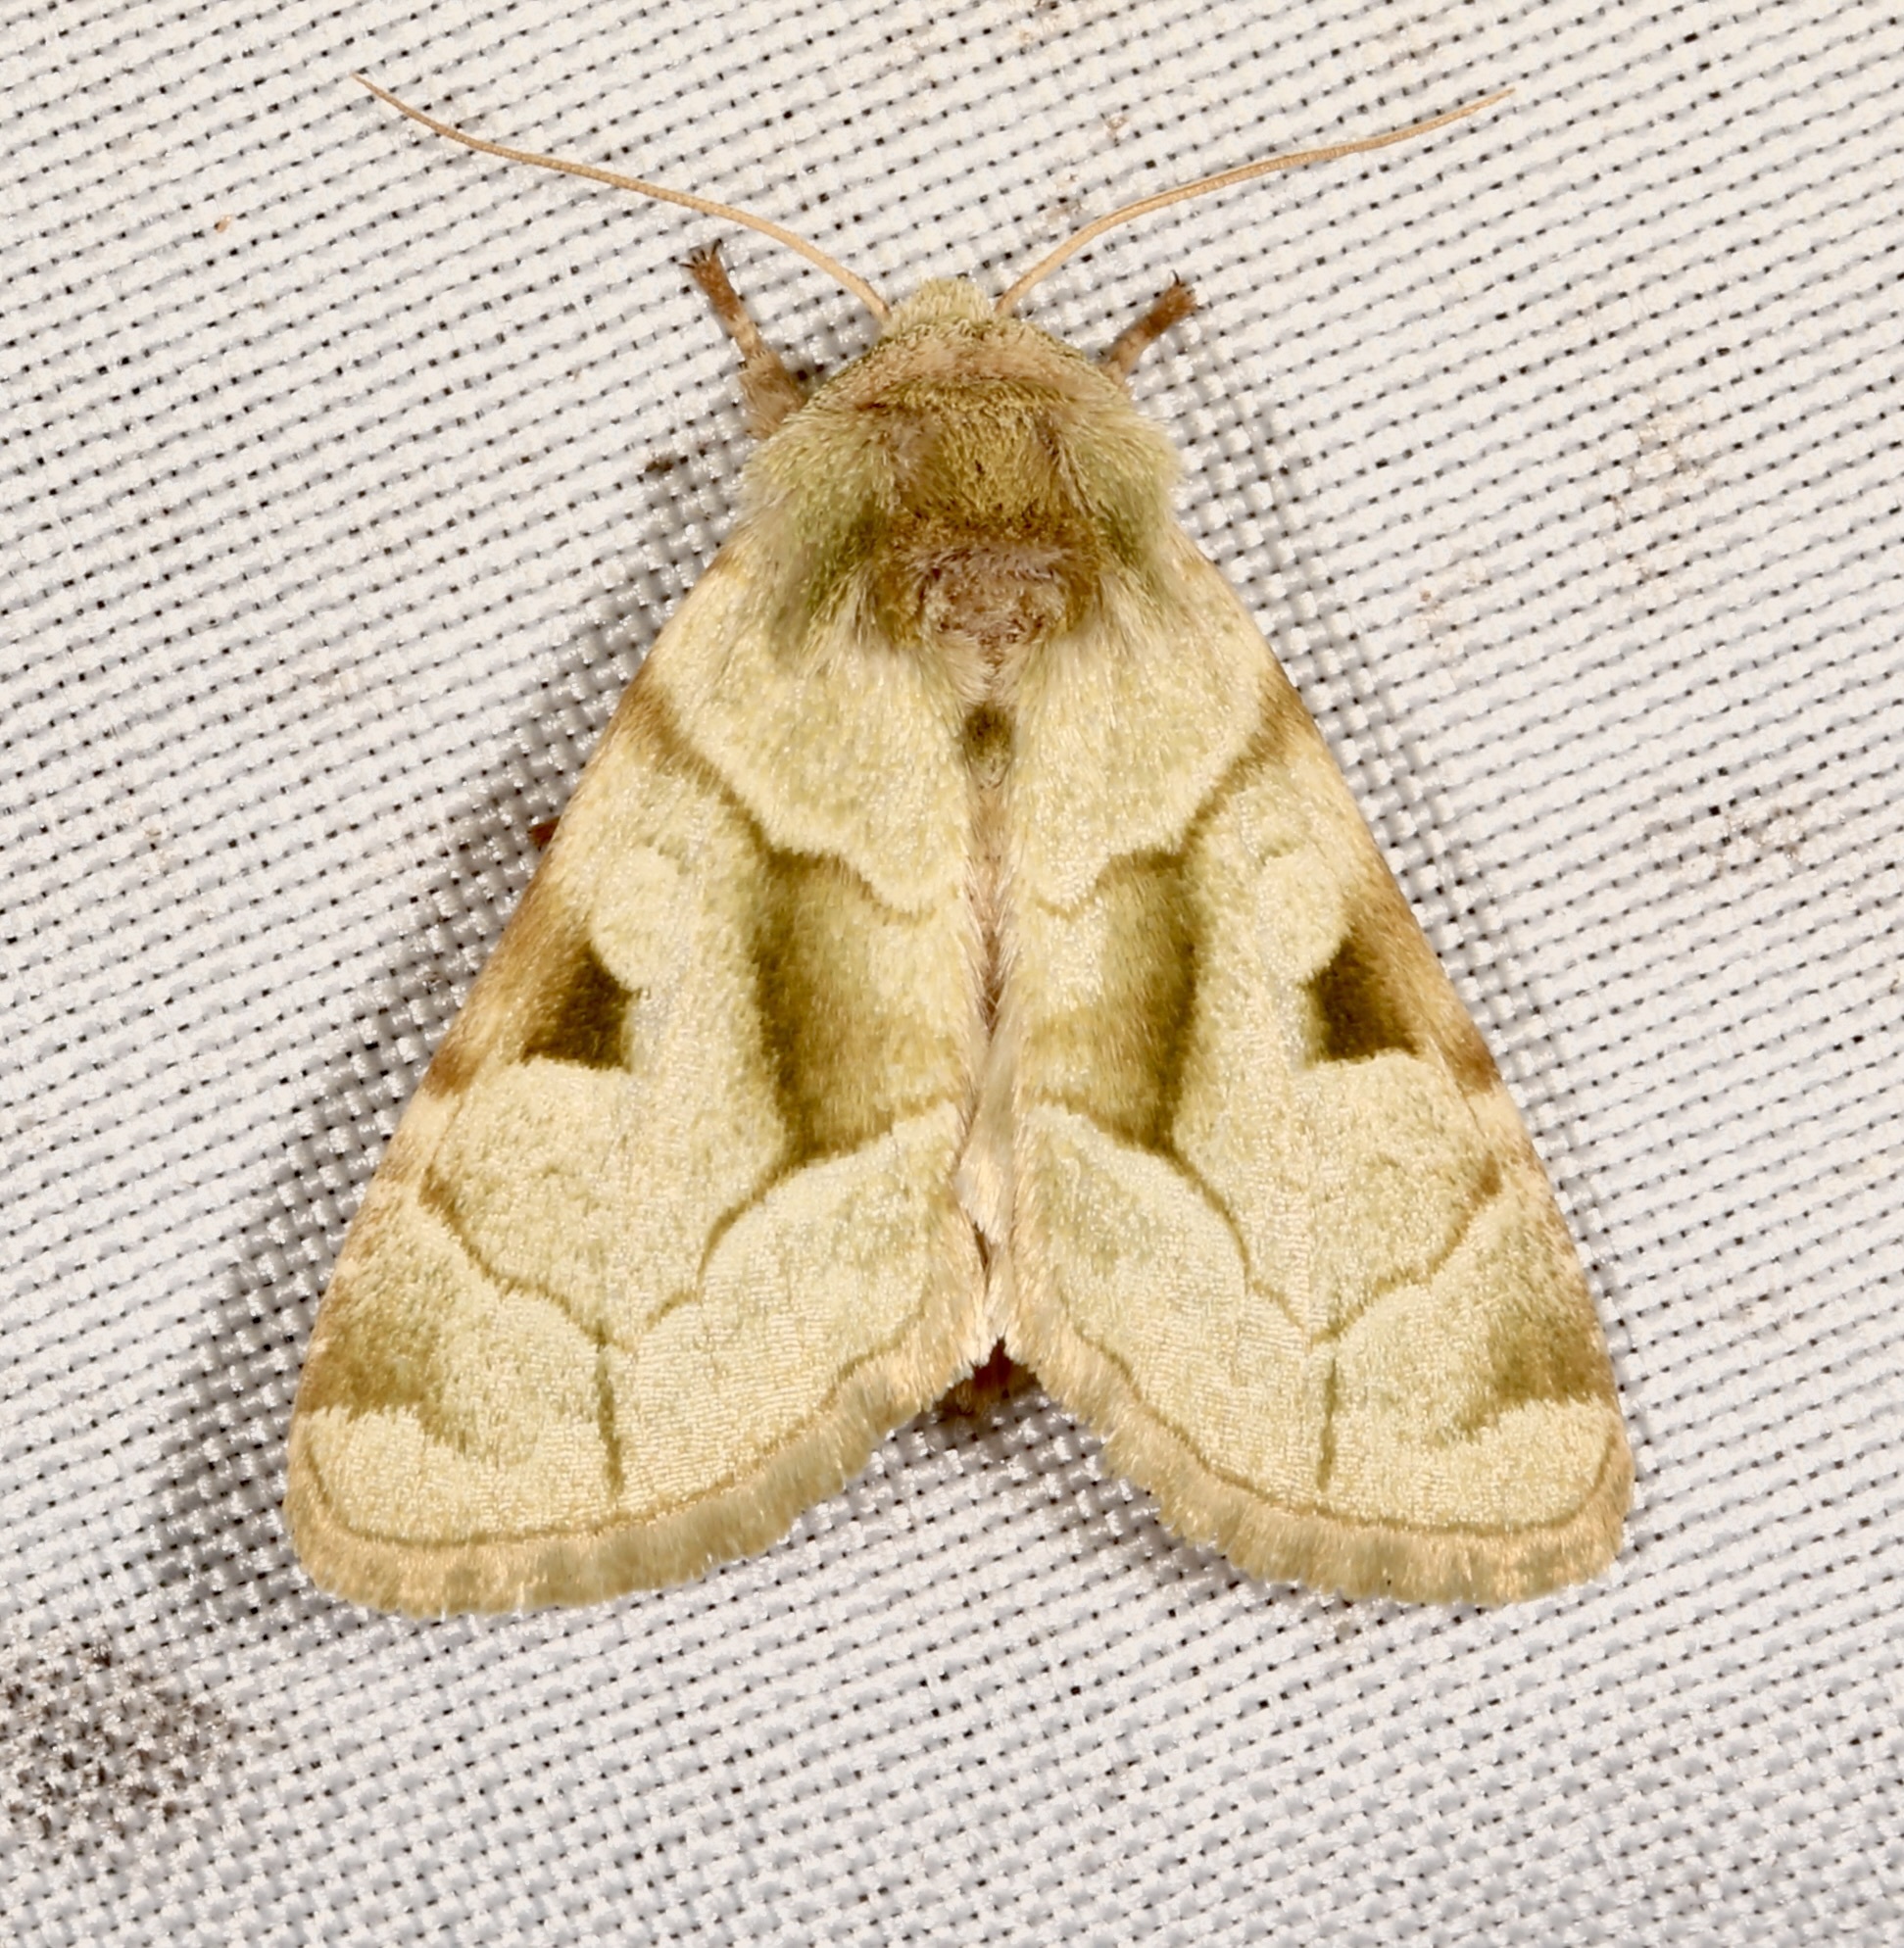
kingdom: Animalia
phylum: Arthropoda
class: Insecta
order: Lepidoptera
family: Noctuidae
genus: Oslaria
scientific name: Oslaria viridifera
